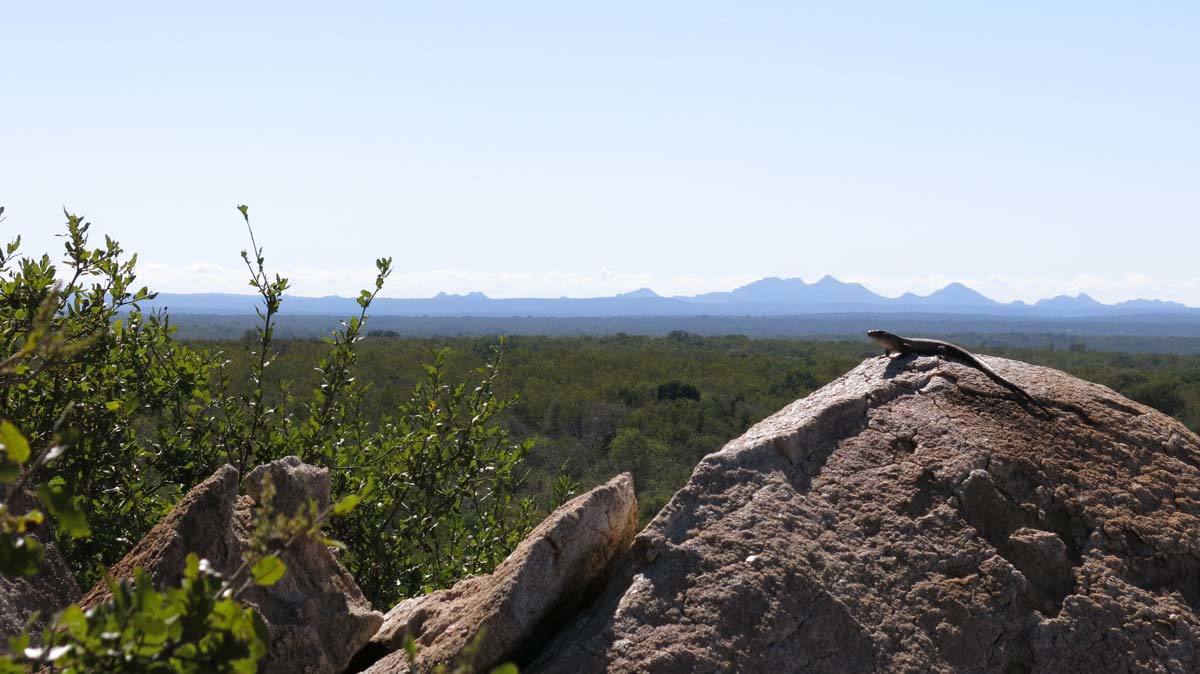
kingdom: Animalia
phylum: Chordata
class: Squamata
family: Gerrhosauridae
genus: Matobosaurus
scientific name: Matobosaurus validus
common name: Common giant plated lizard
